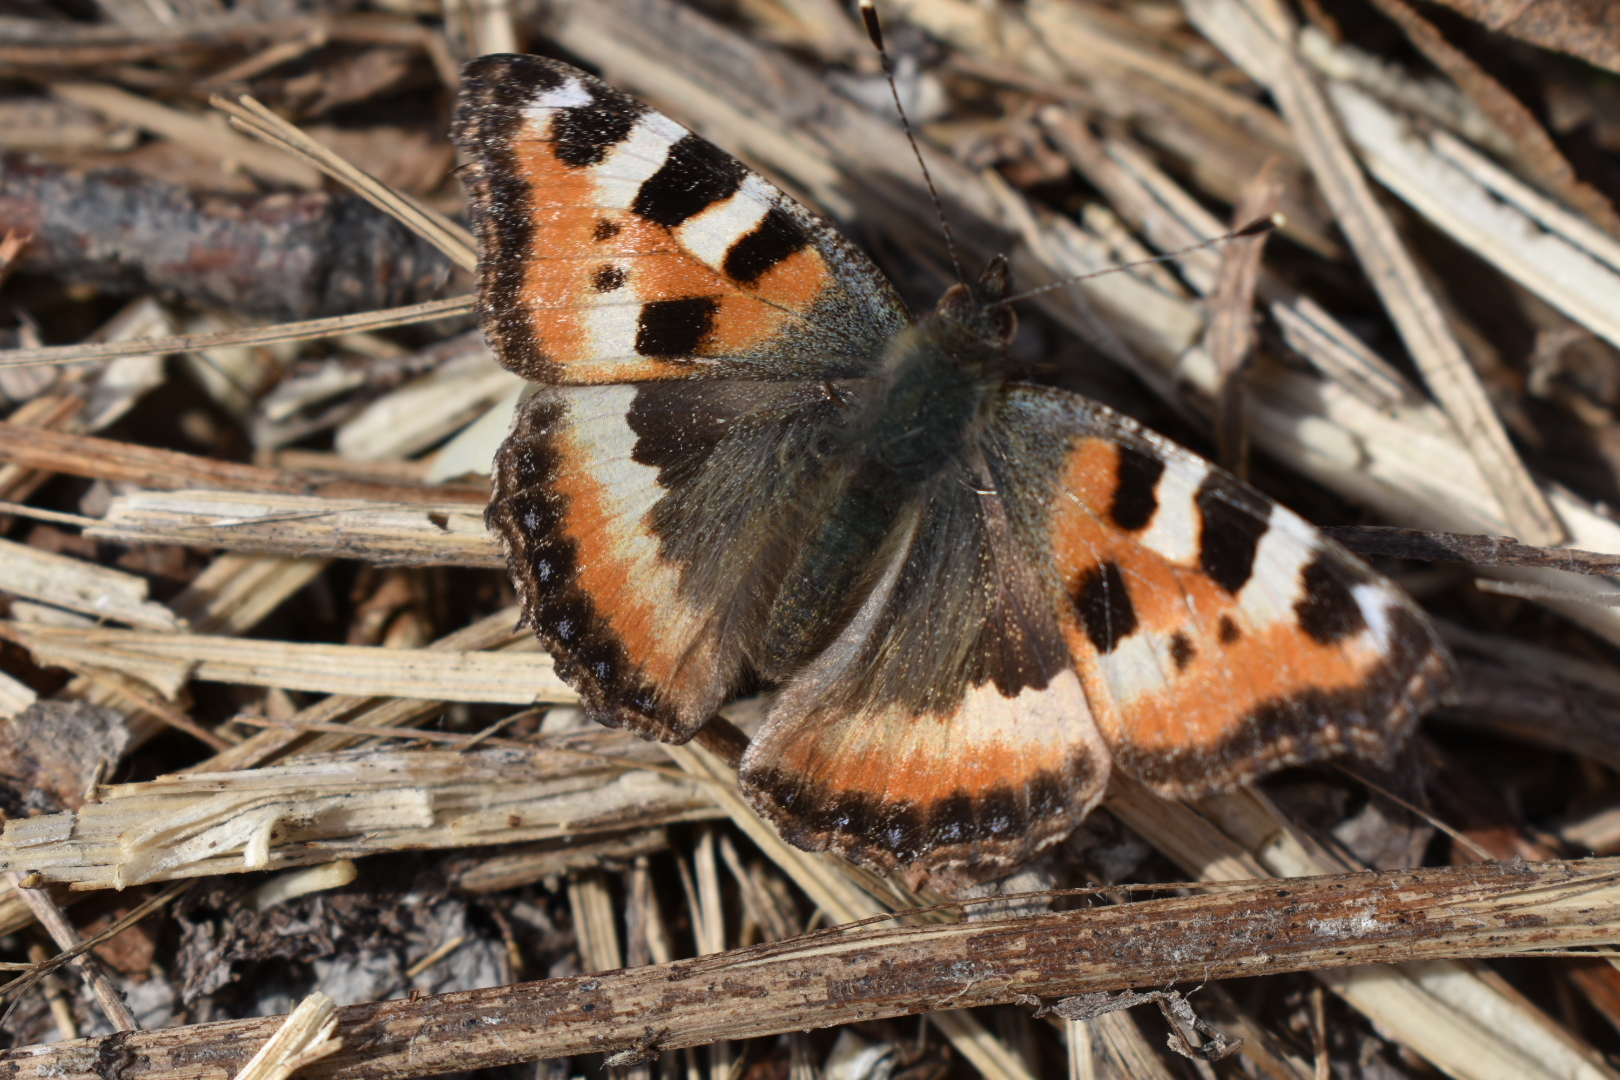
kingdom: Animalia
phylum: Arthropoda
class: Insecta
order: Lepidoptera
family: Nymphalidae
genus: Aglais
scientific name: Aglais urticae
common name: Small tortoiseshell
